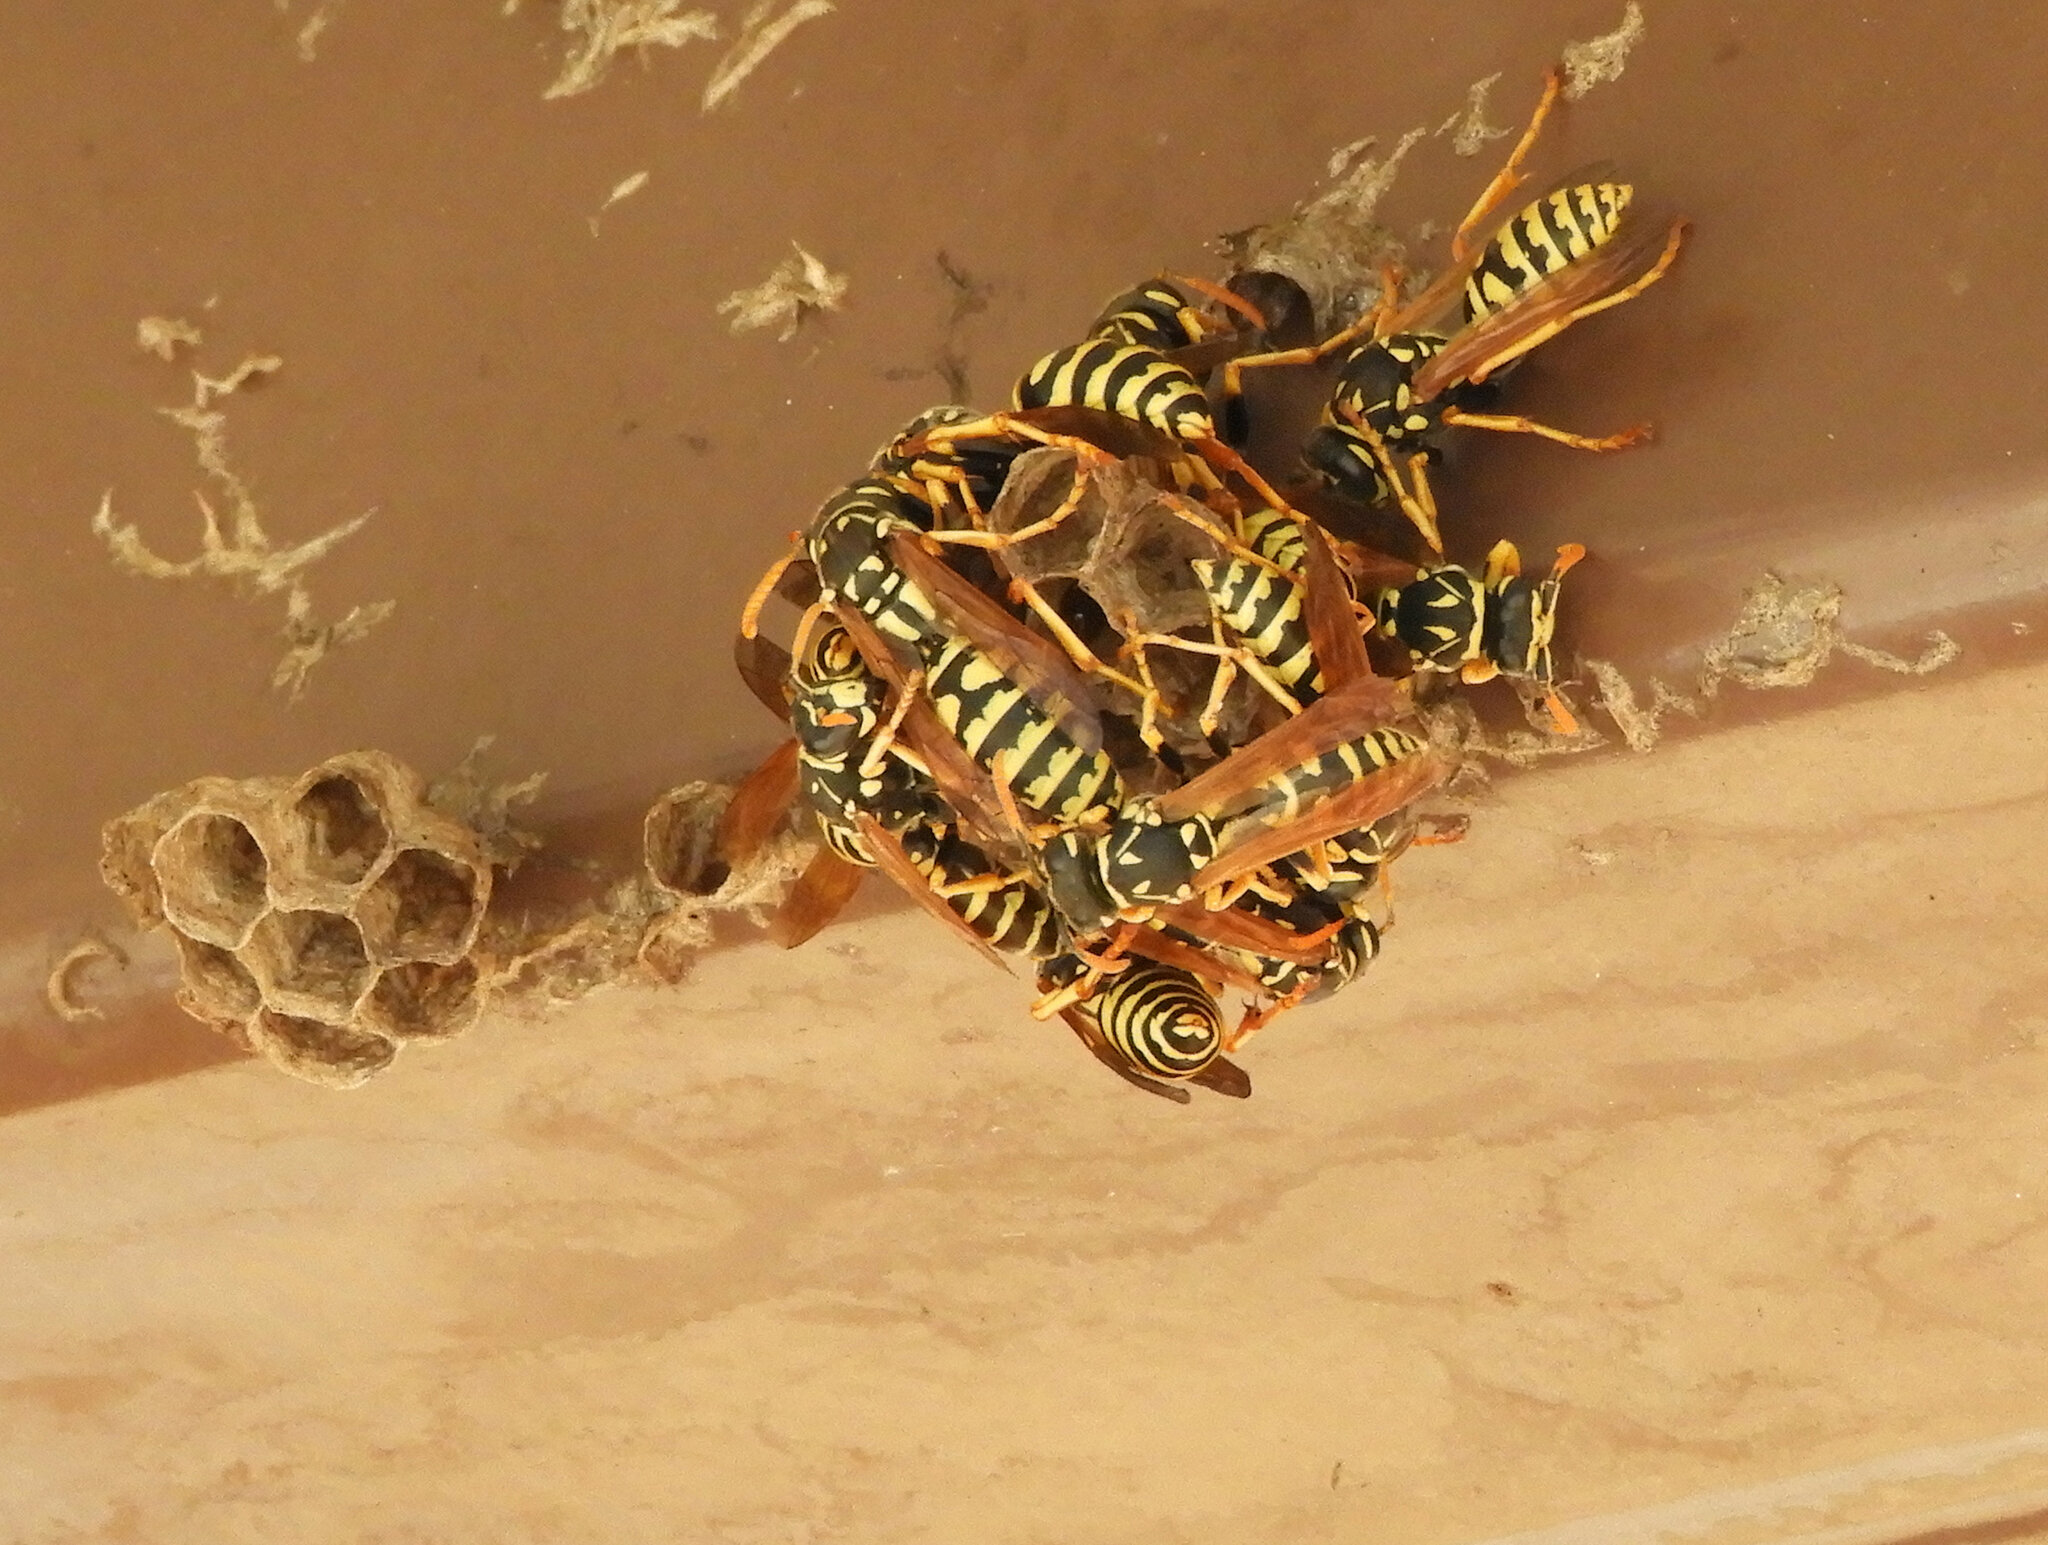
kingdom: Animalia
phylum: Arthropoda
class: Insecta
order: Hymenoptera
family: Eumenidae
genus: Polistes
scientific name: Polistes dominula
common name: Paper wasp
